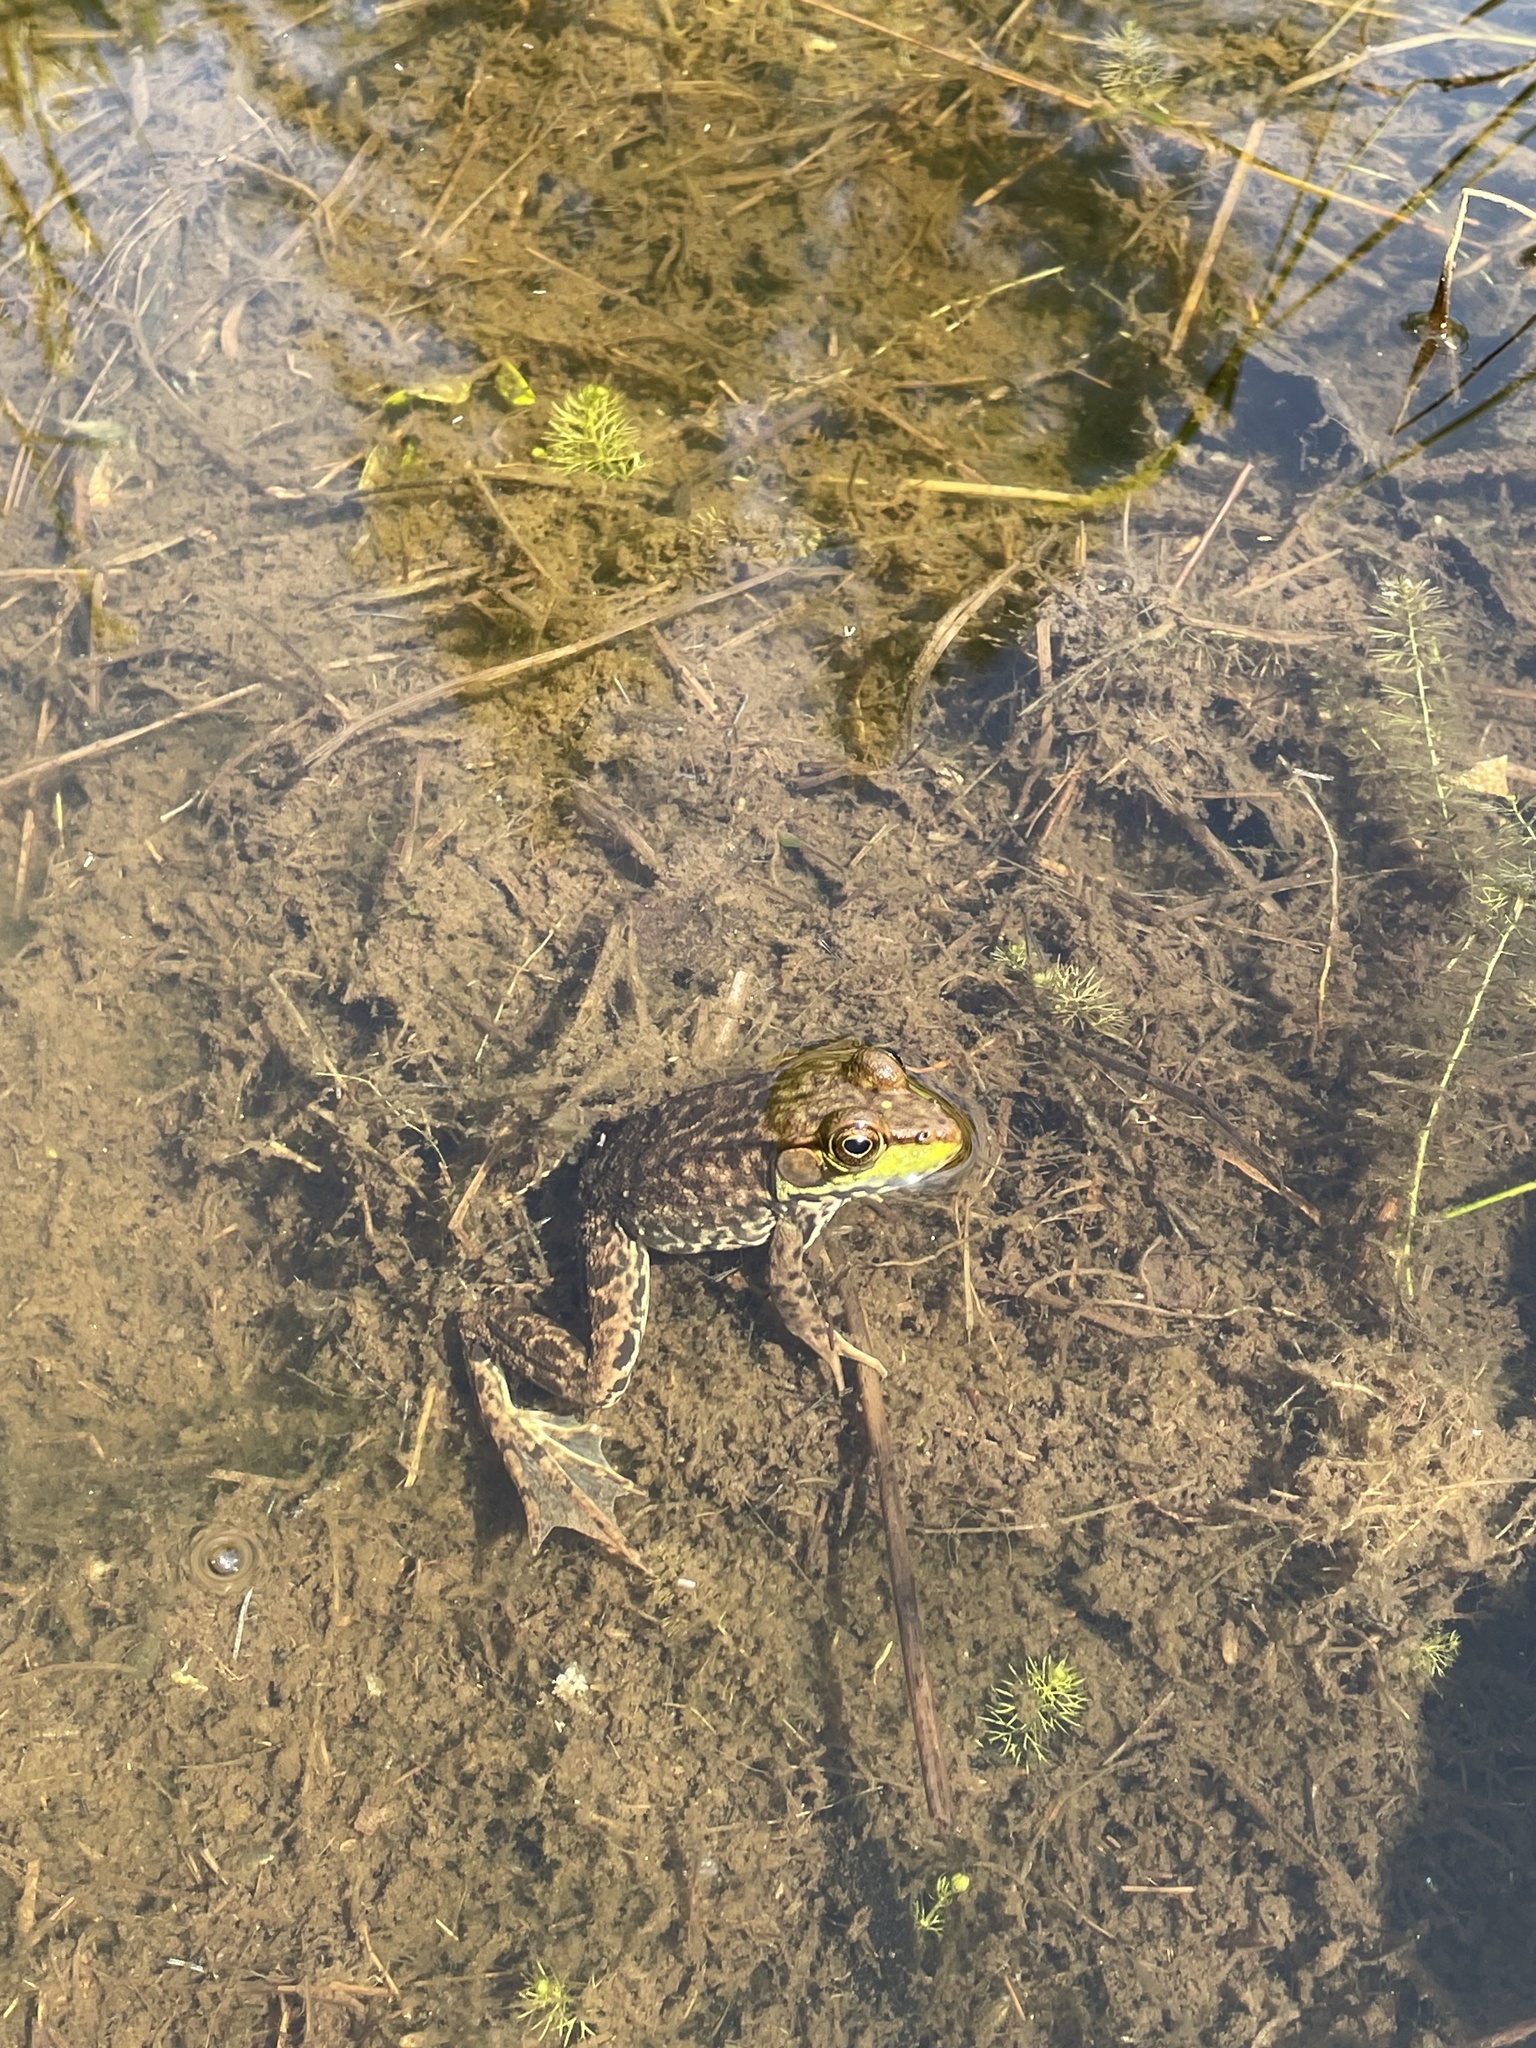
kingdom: Animalia
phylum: Chordata
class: Amphibia
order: Anura
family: Ranidae
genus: Lithobates
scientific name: Lithobates clamitans
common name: Green frog
